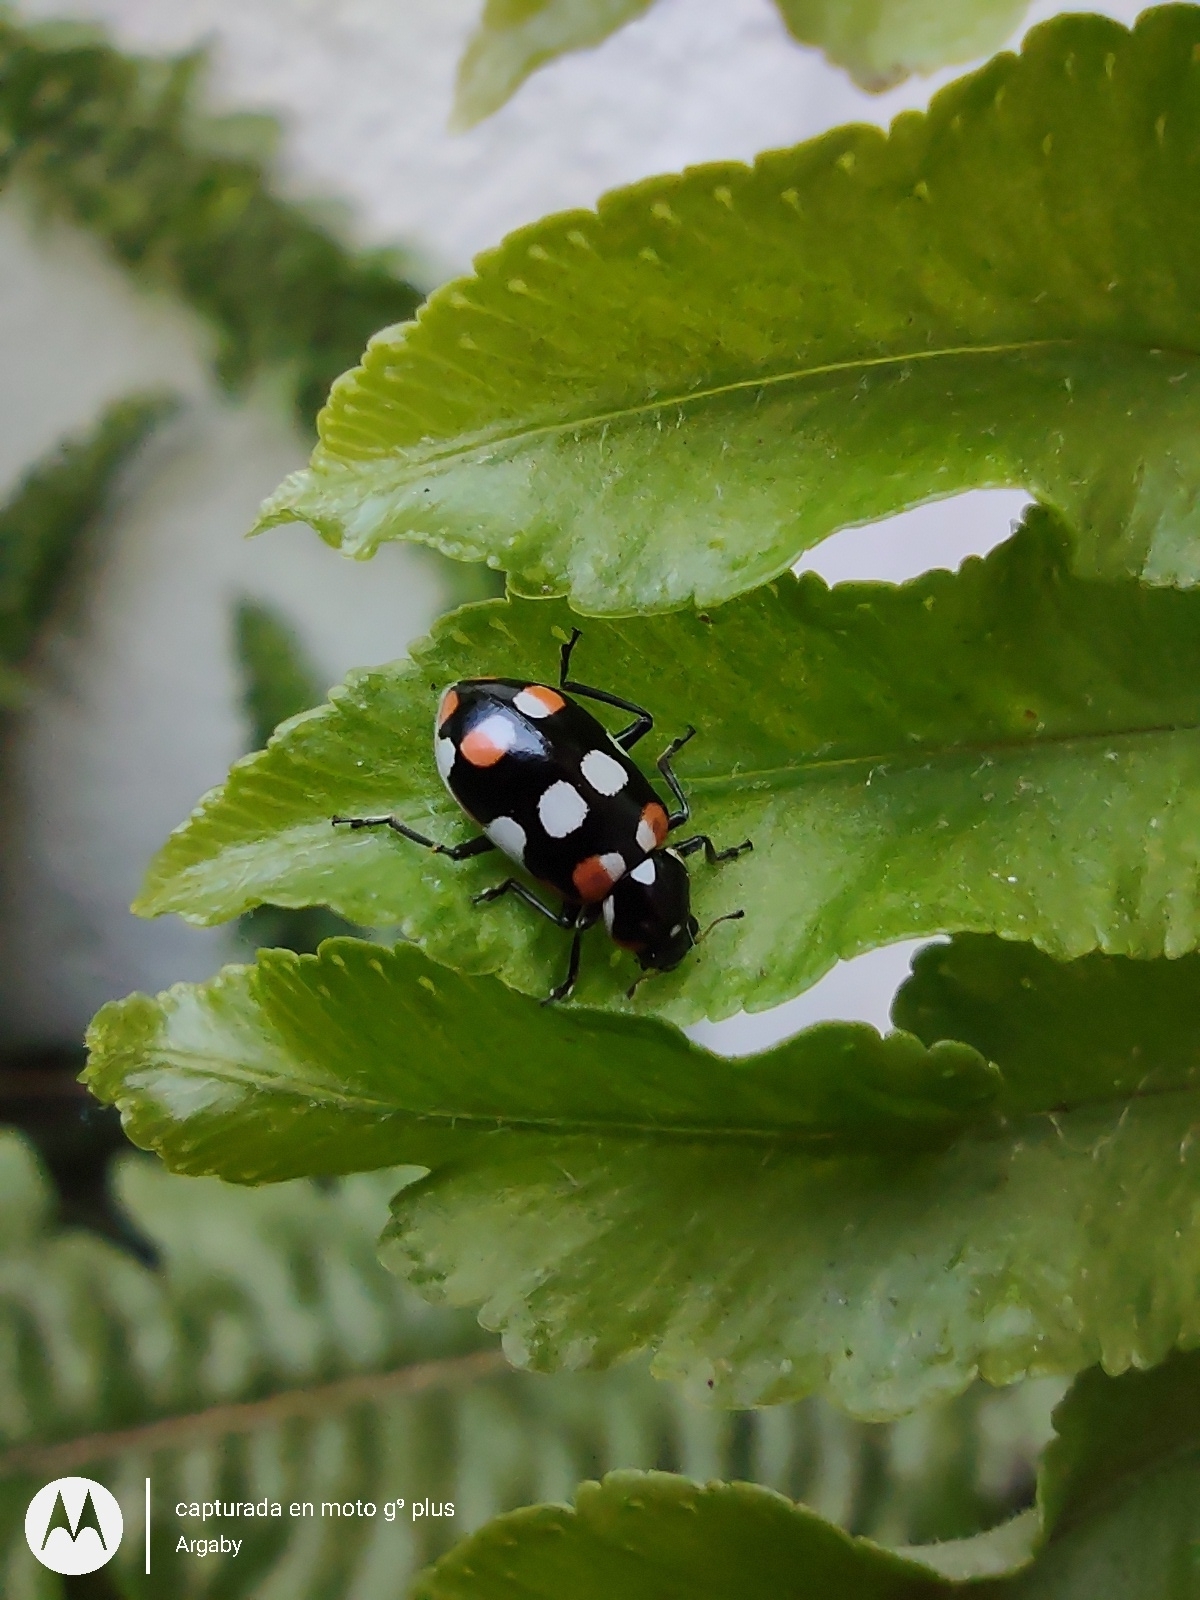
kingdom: Animalia
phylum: Arthropoda
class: Insecta
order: Coleoptera
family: Coccinellidae
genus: Eriopis
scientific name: Eriopis connexa
